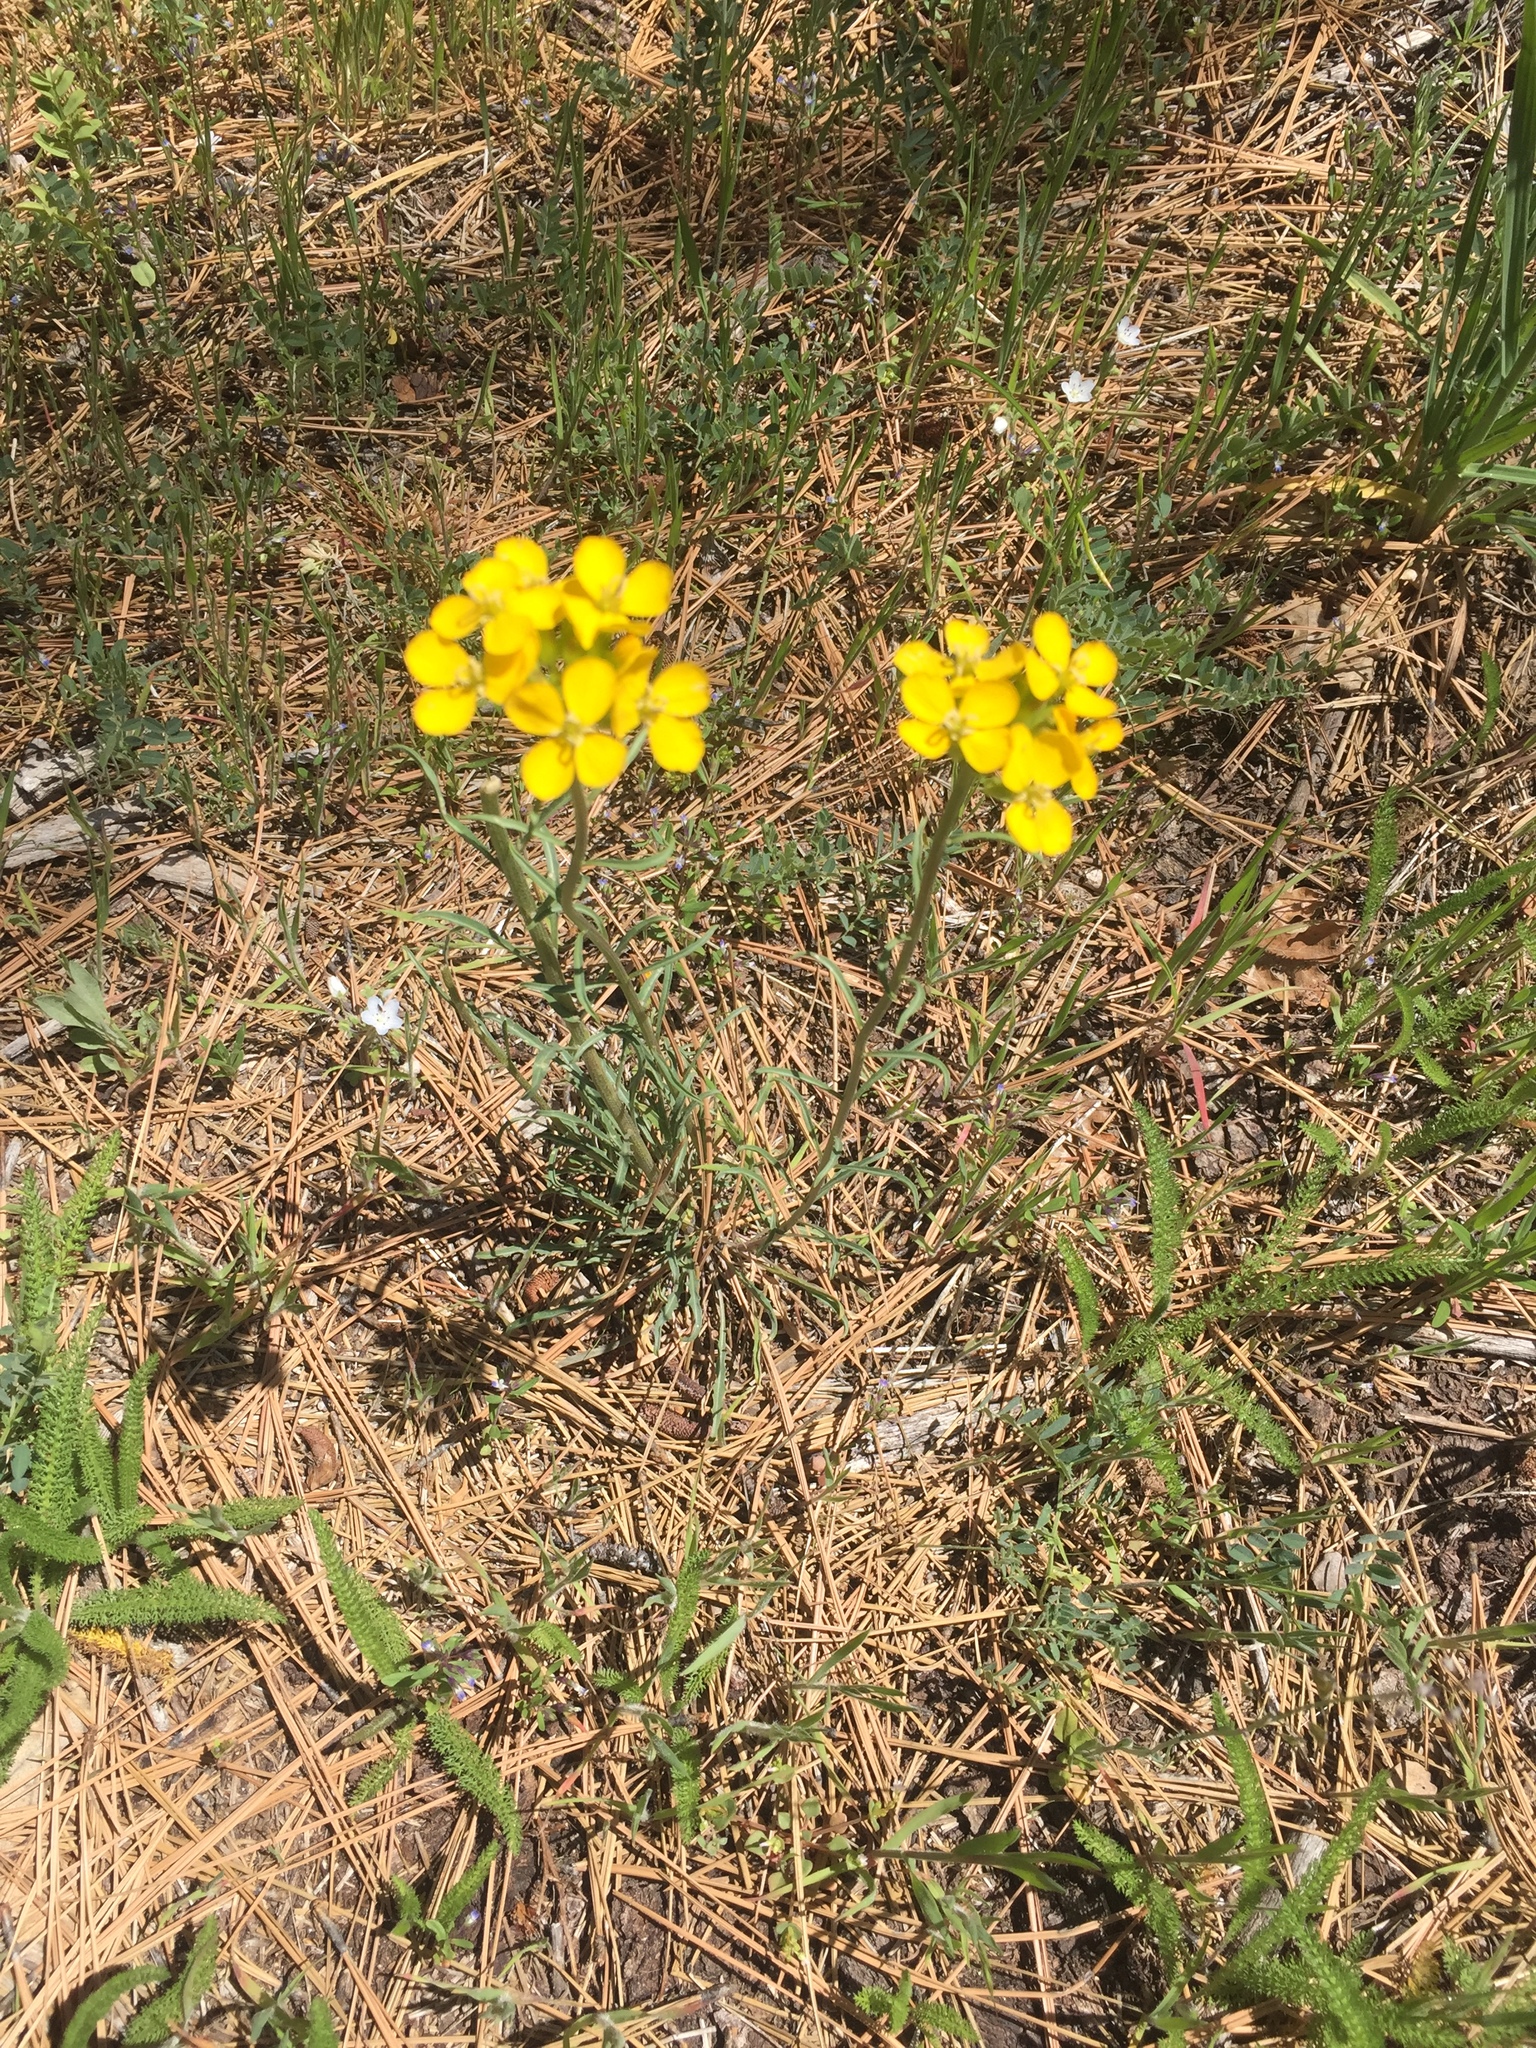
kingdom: Plantae
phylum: Tracheophyta
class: Magnoliopsida
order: Brassicales
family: Brassicaceae
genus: Erysimum
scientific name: Erysimum capitatum
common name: Western wallflower
